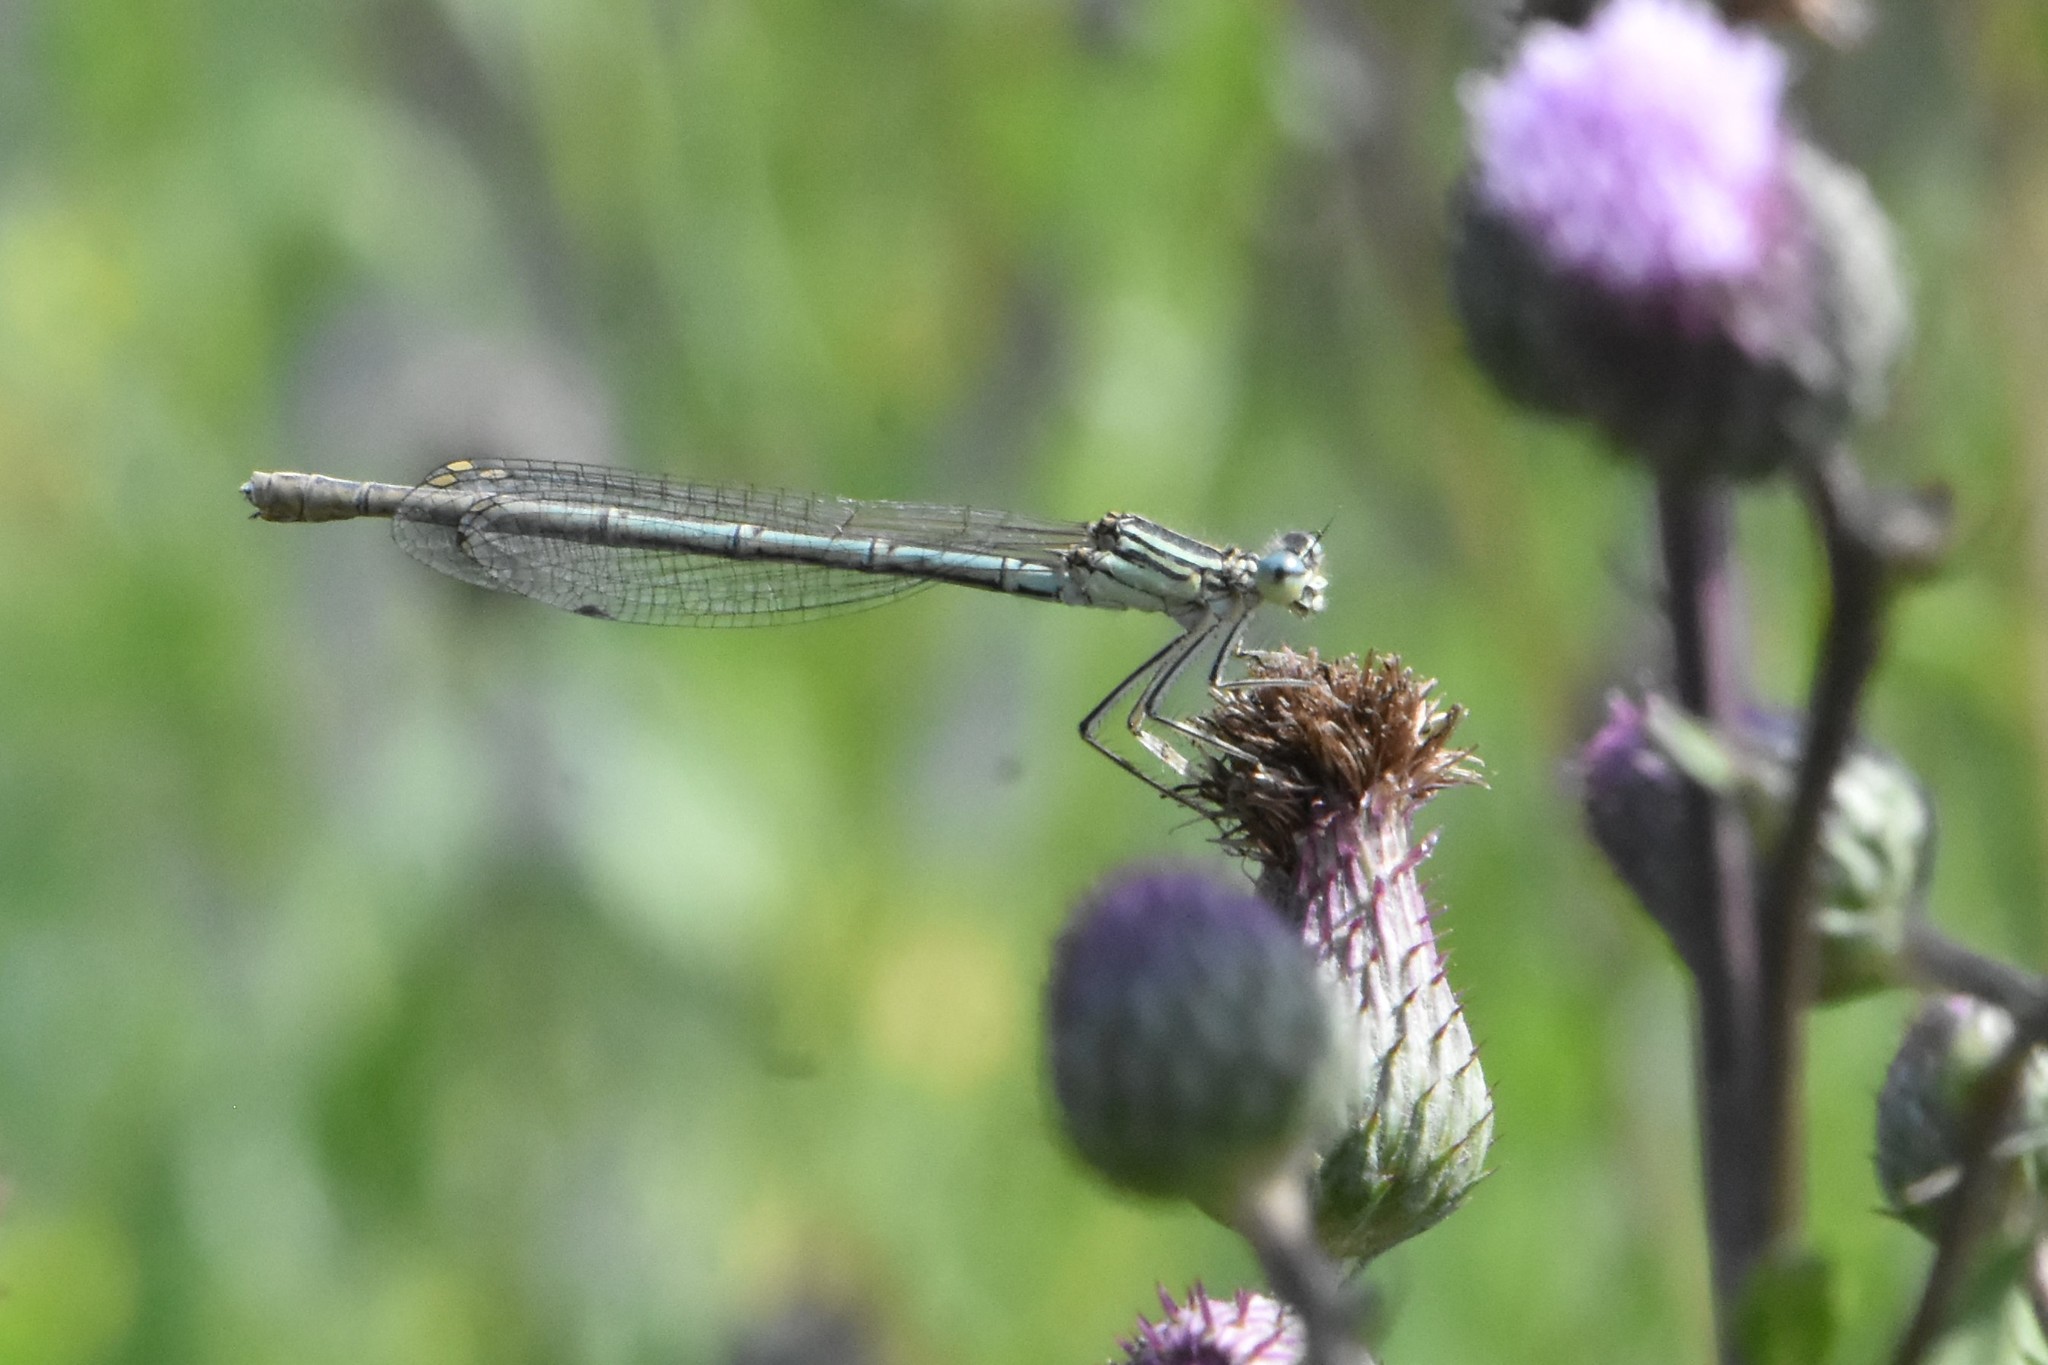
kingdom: Animalia
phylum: Arthropoda
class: Insecta
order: Odonata
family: Platycnemididae
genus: Platycnemis
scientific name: Platycnemis pennipes
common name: White-legged damselfly
